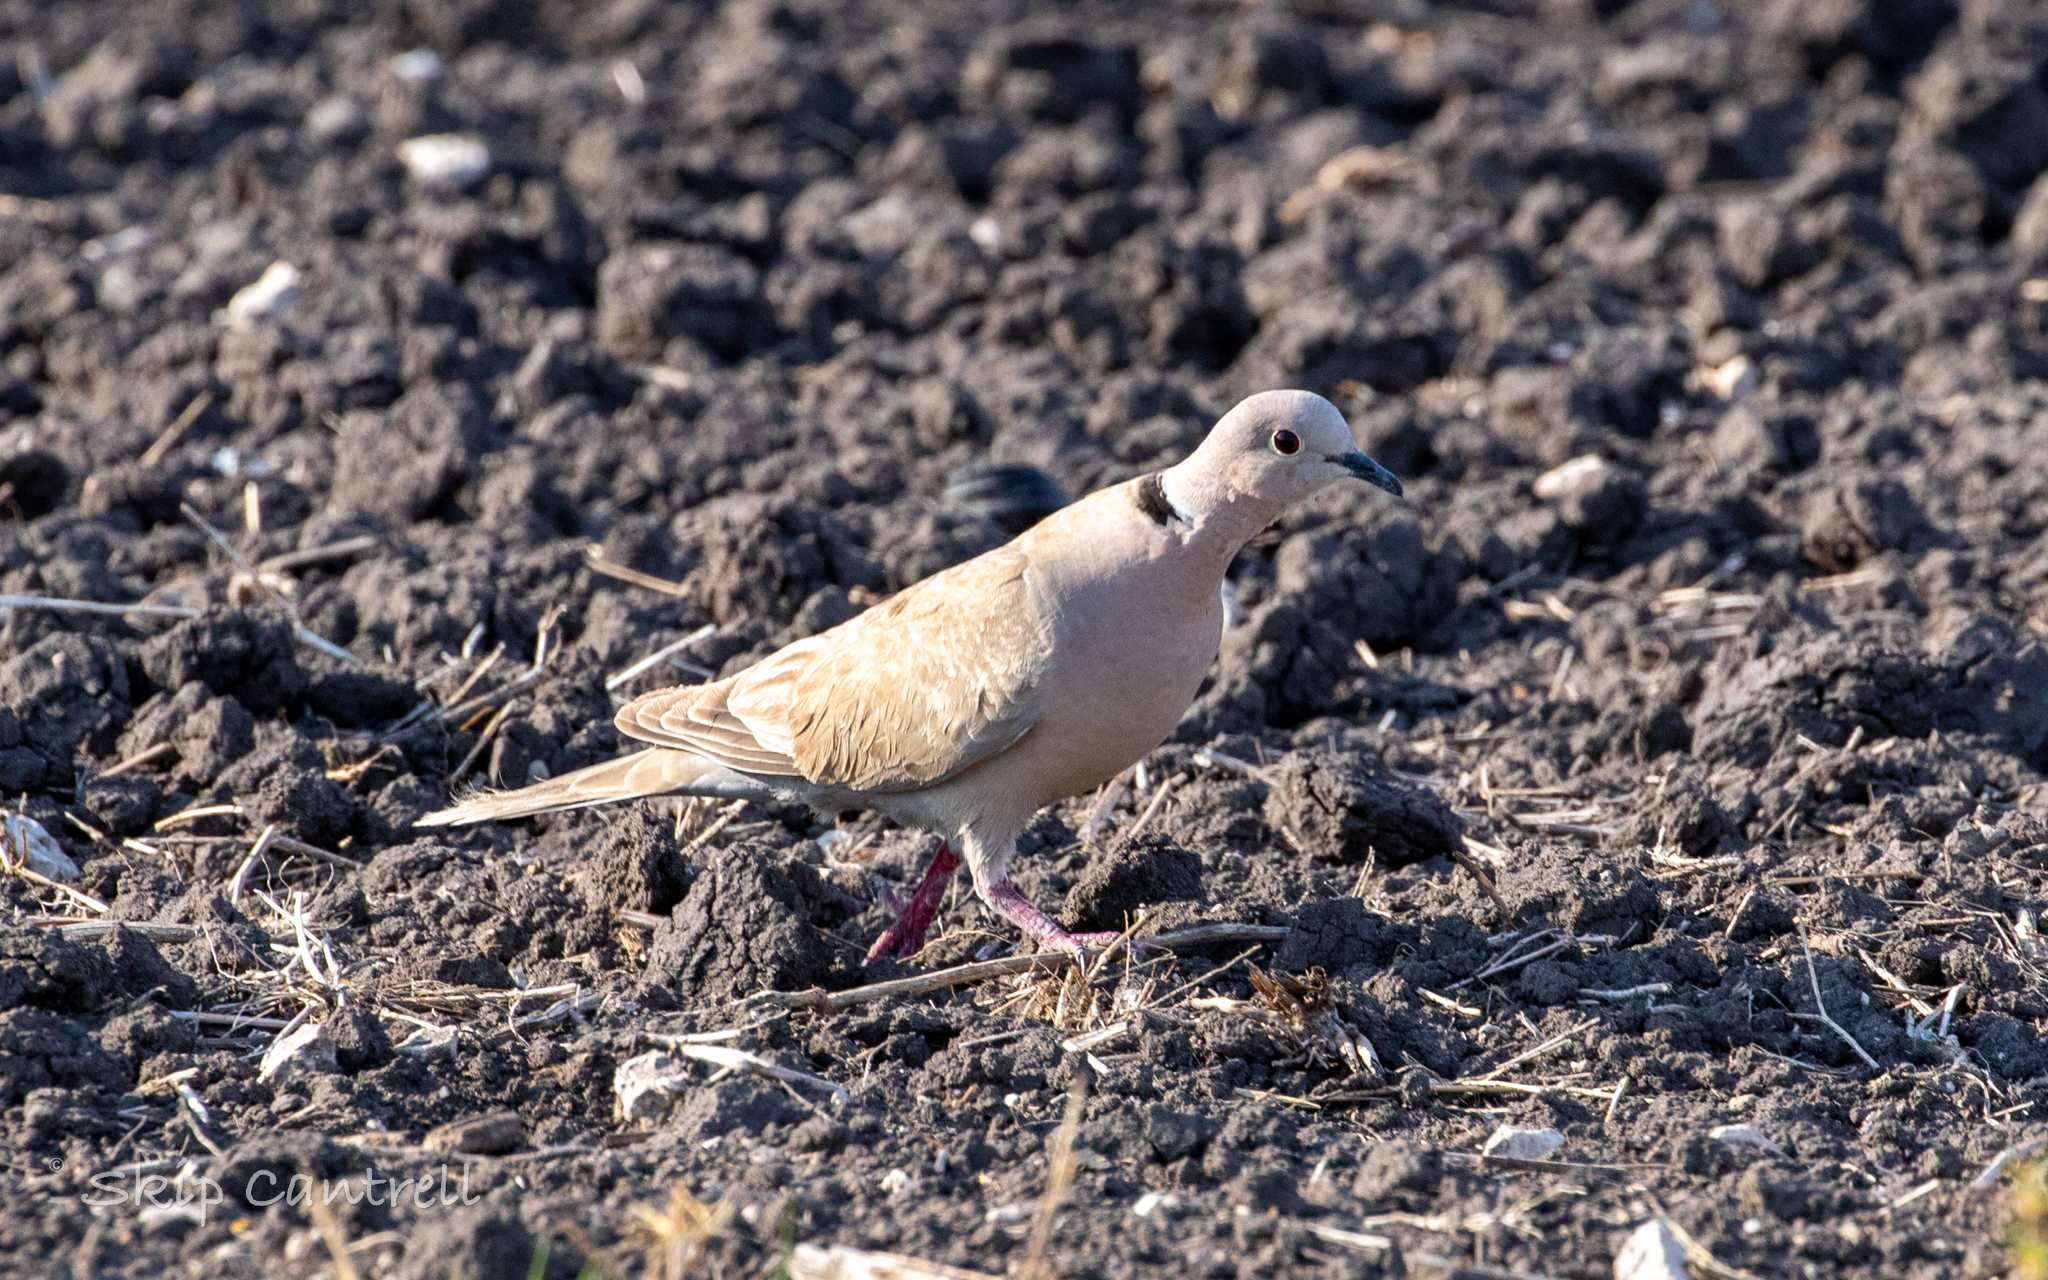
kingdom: Animalia
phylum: Chordata
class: Aves
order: Columbiformes
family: Columbidae
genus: Streptopelia
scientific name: Streptopelia decaocto
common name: Eurasian collared dove
